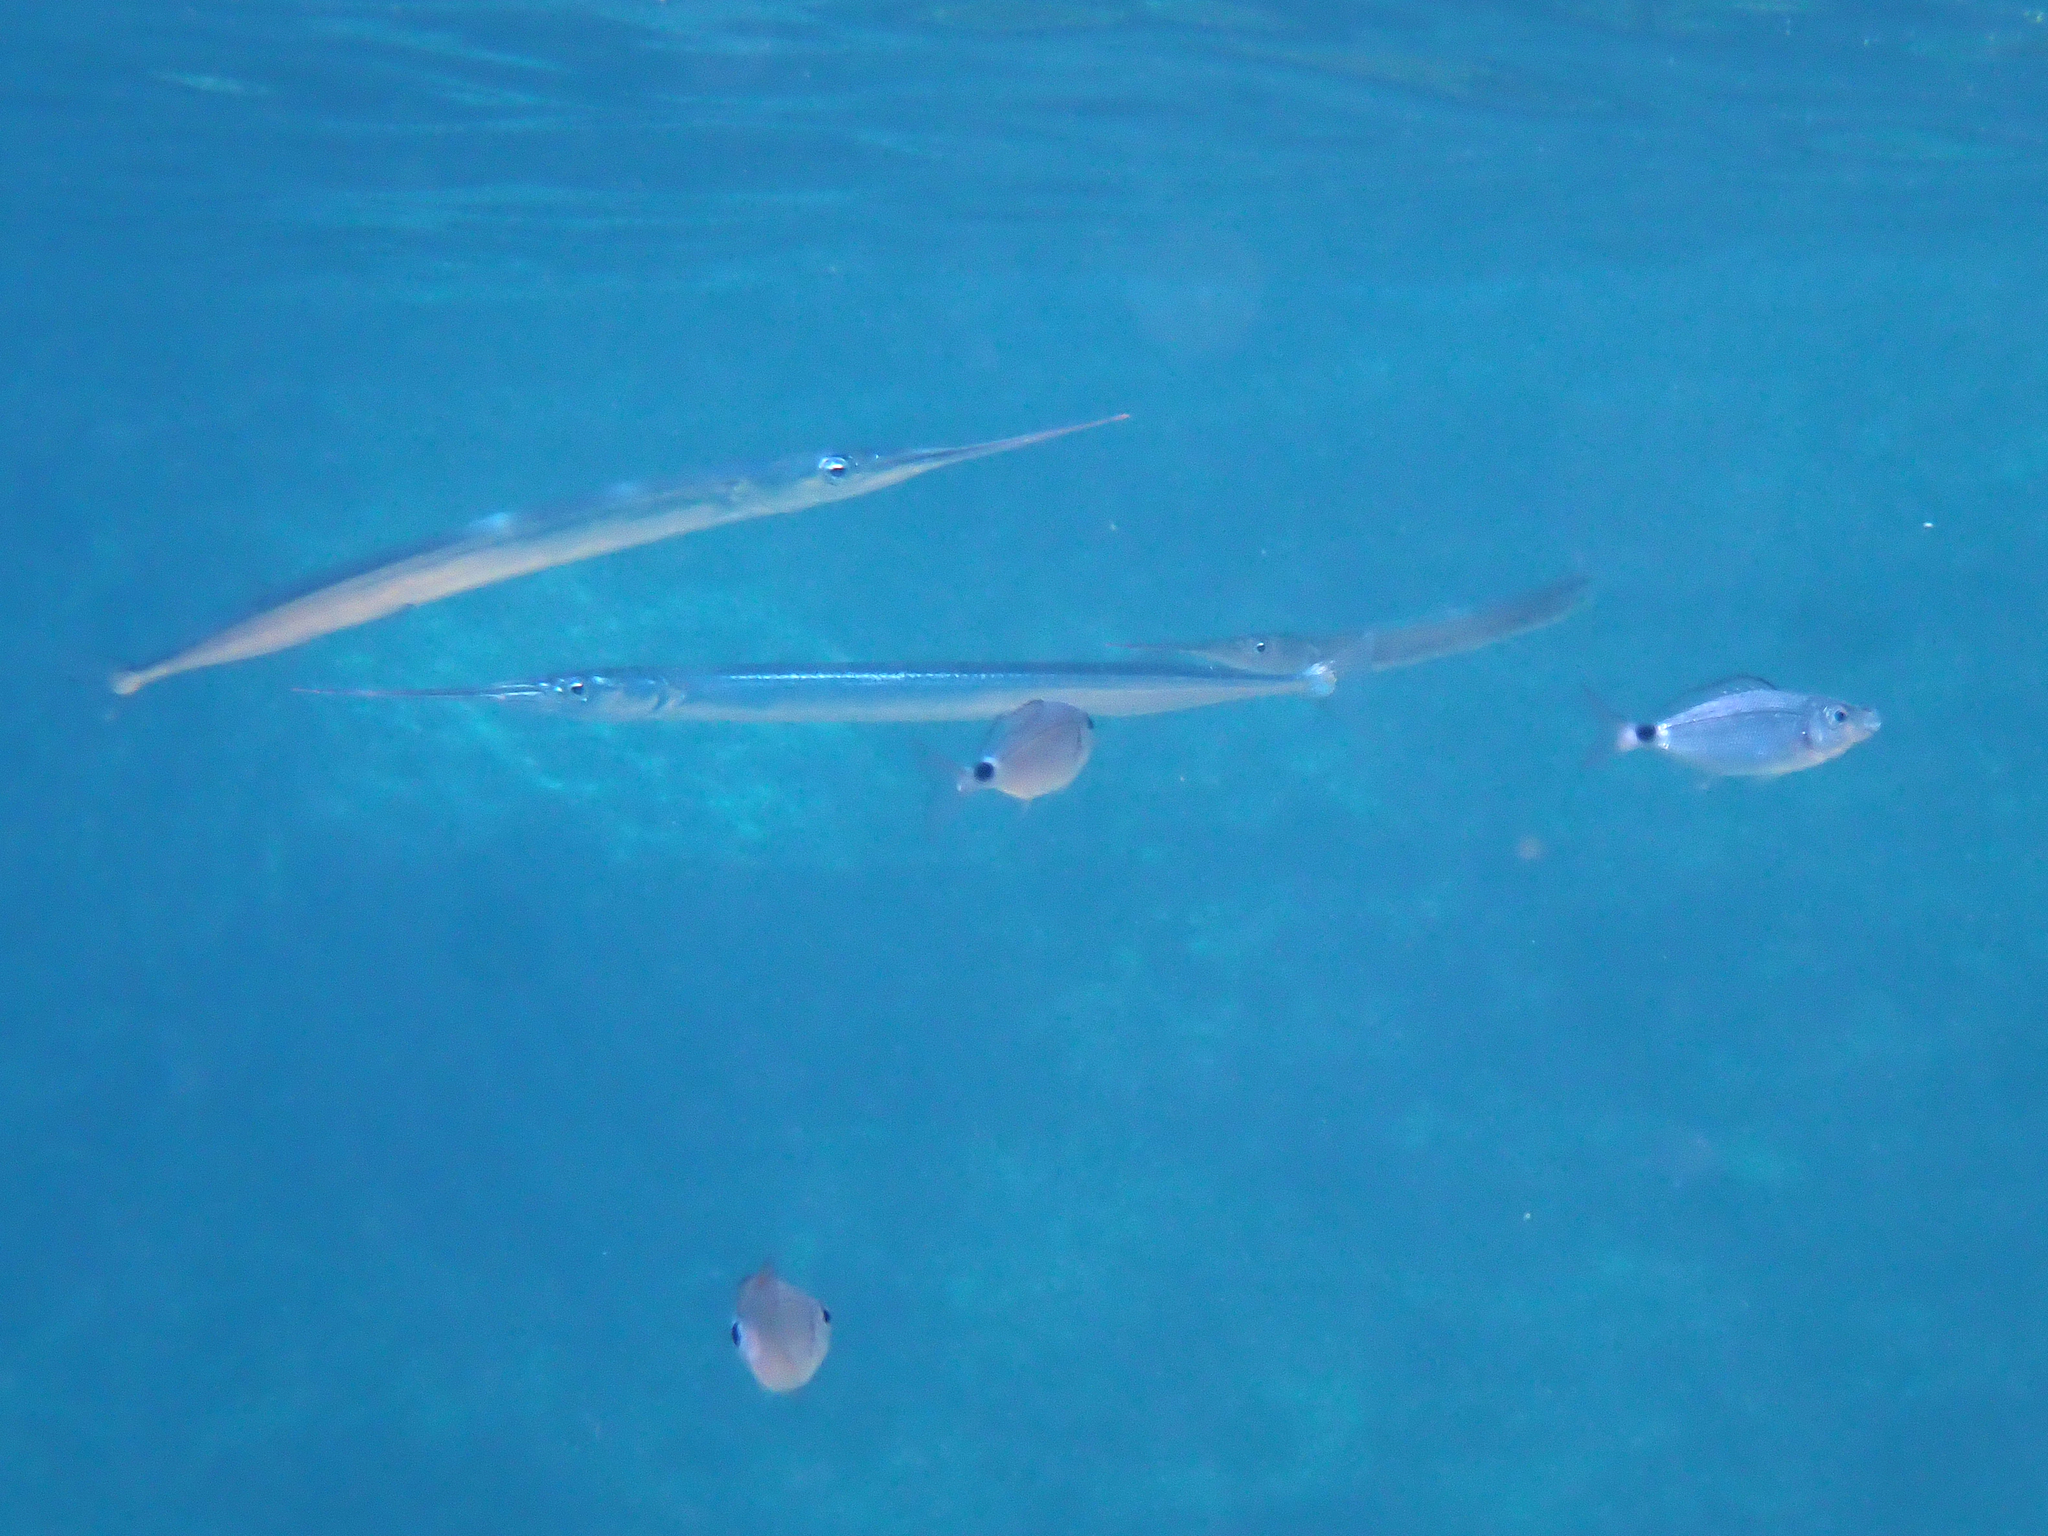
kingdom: Animalia
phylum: Chordata
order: Perciformes
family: Sparidae
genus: Oblada
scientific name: Oblada melanura
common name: Saddled seabream
